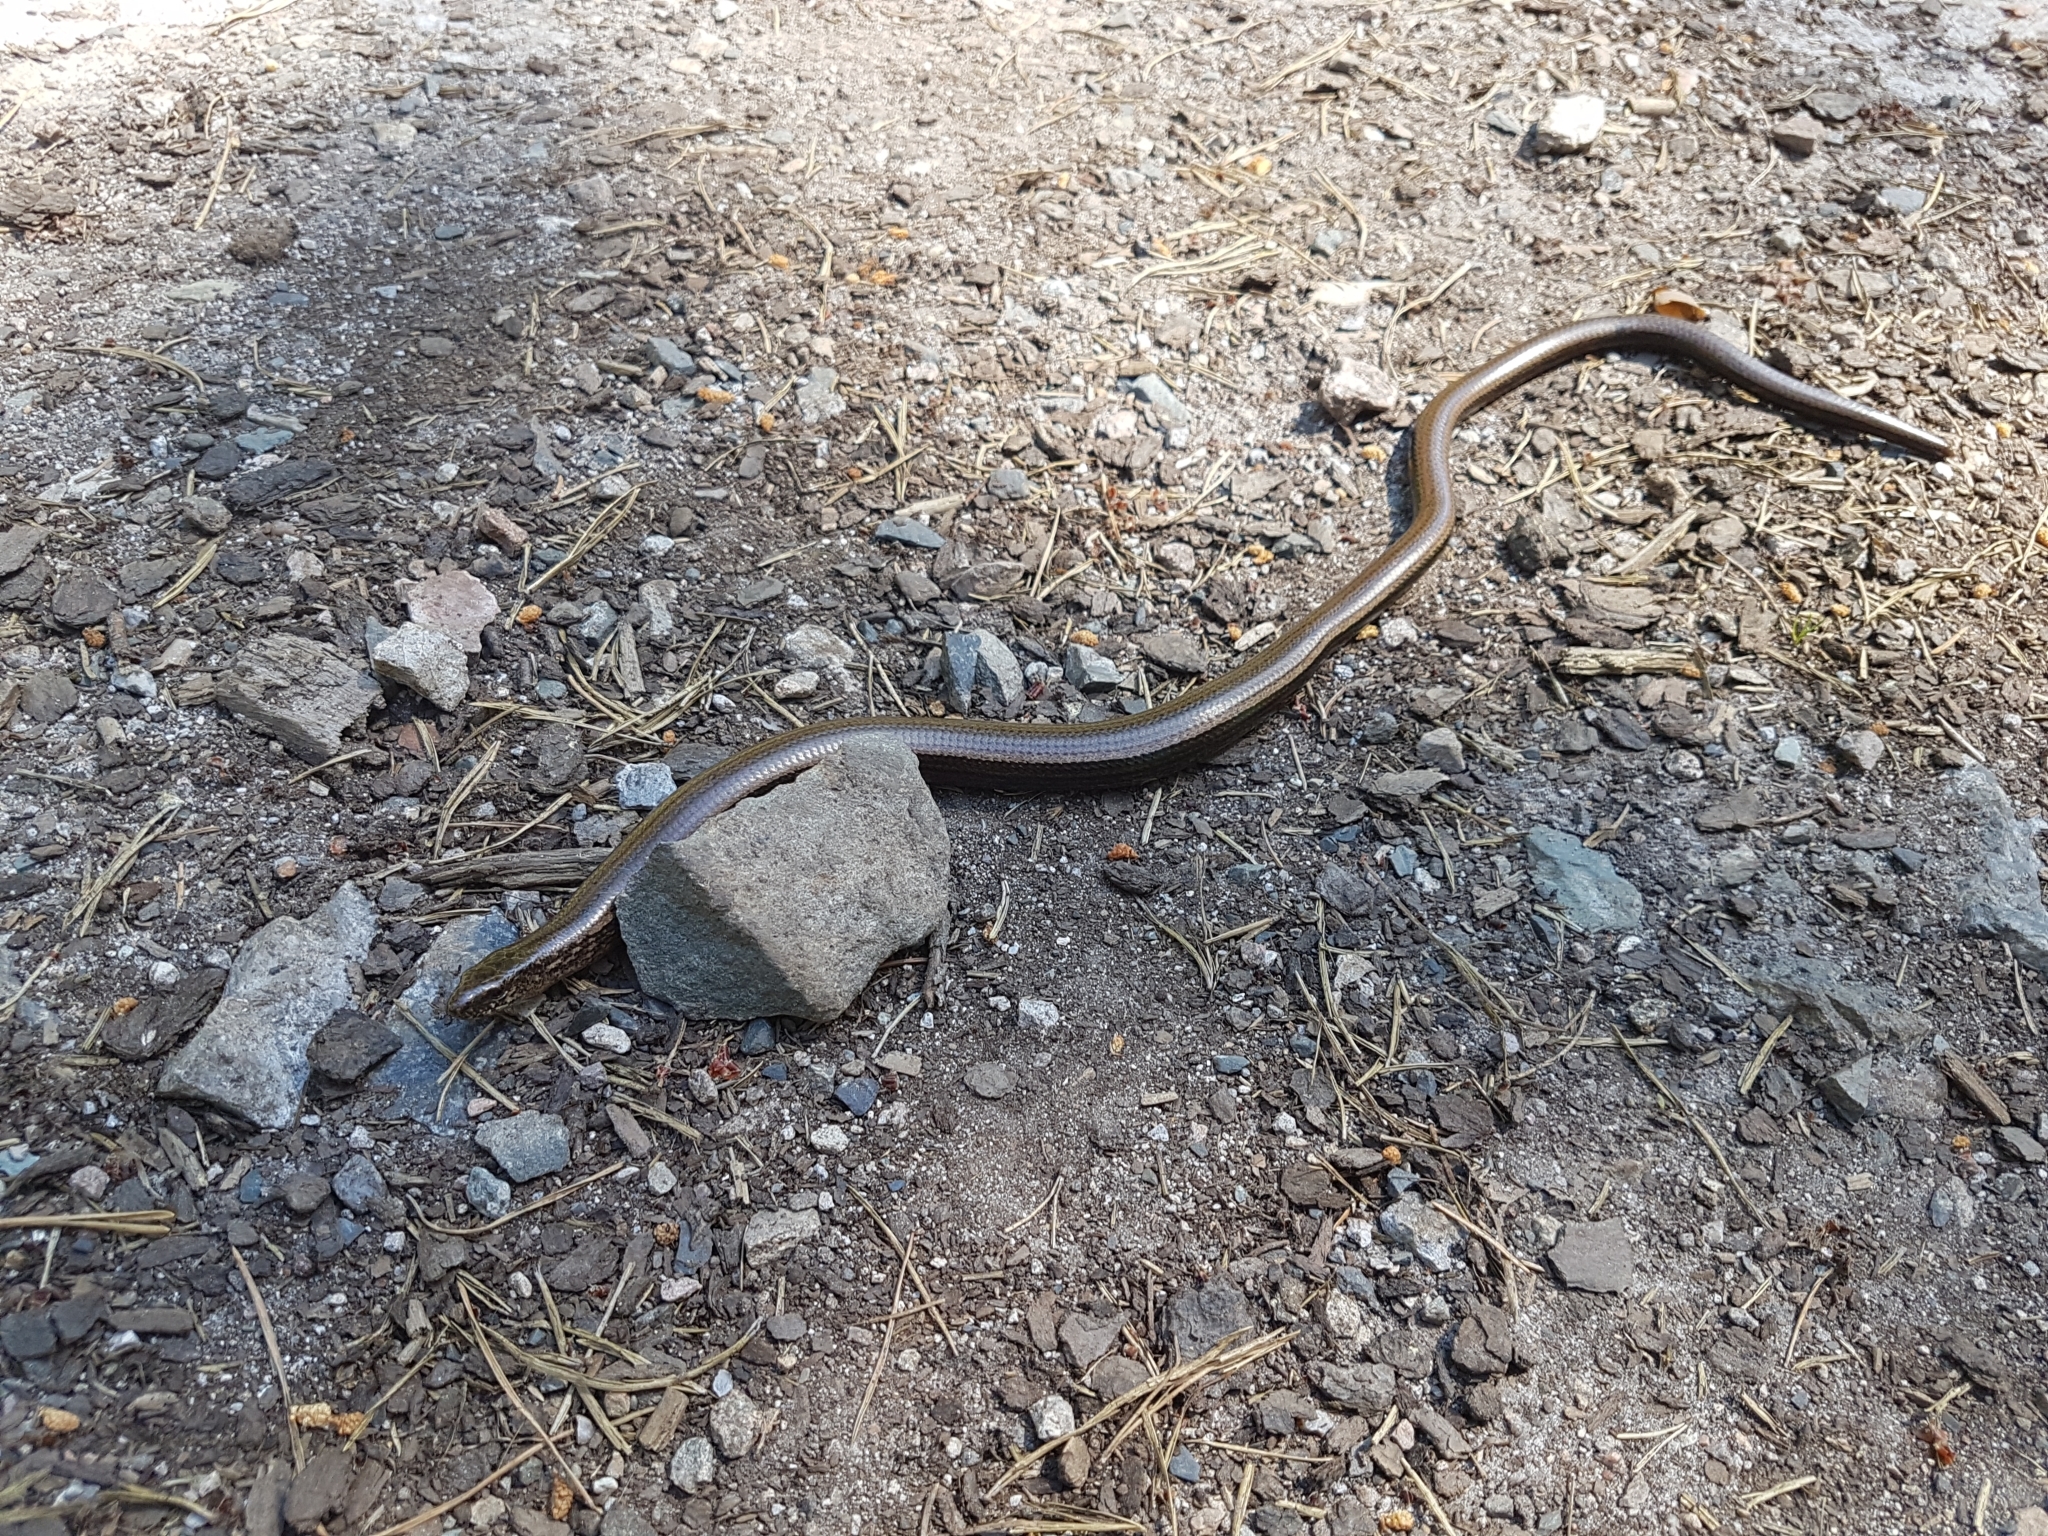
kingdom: Animalia
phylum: Chordata
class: Squamata
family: Anguidae
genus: Anguis
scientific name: Anguis fragilis
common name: Slow worm
